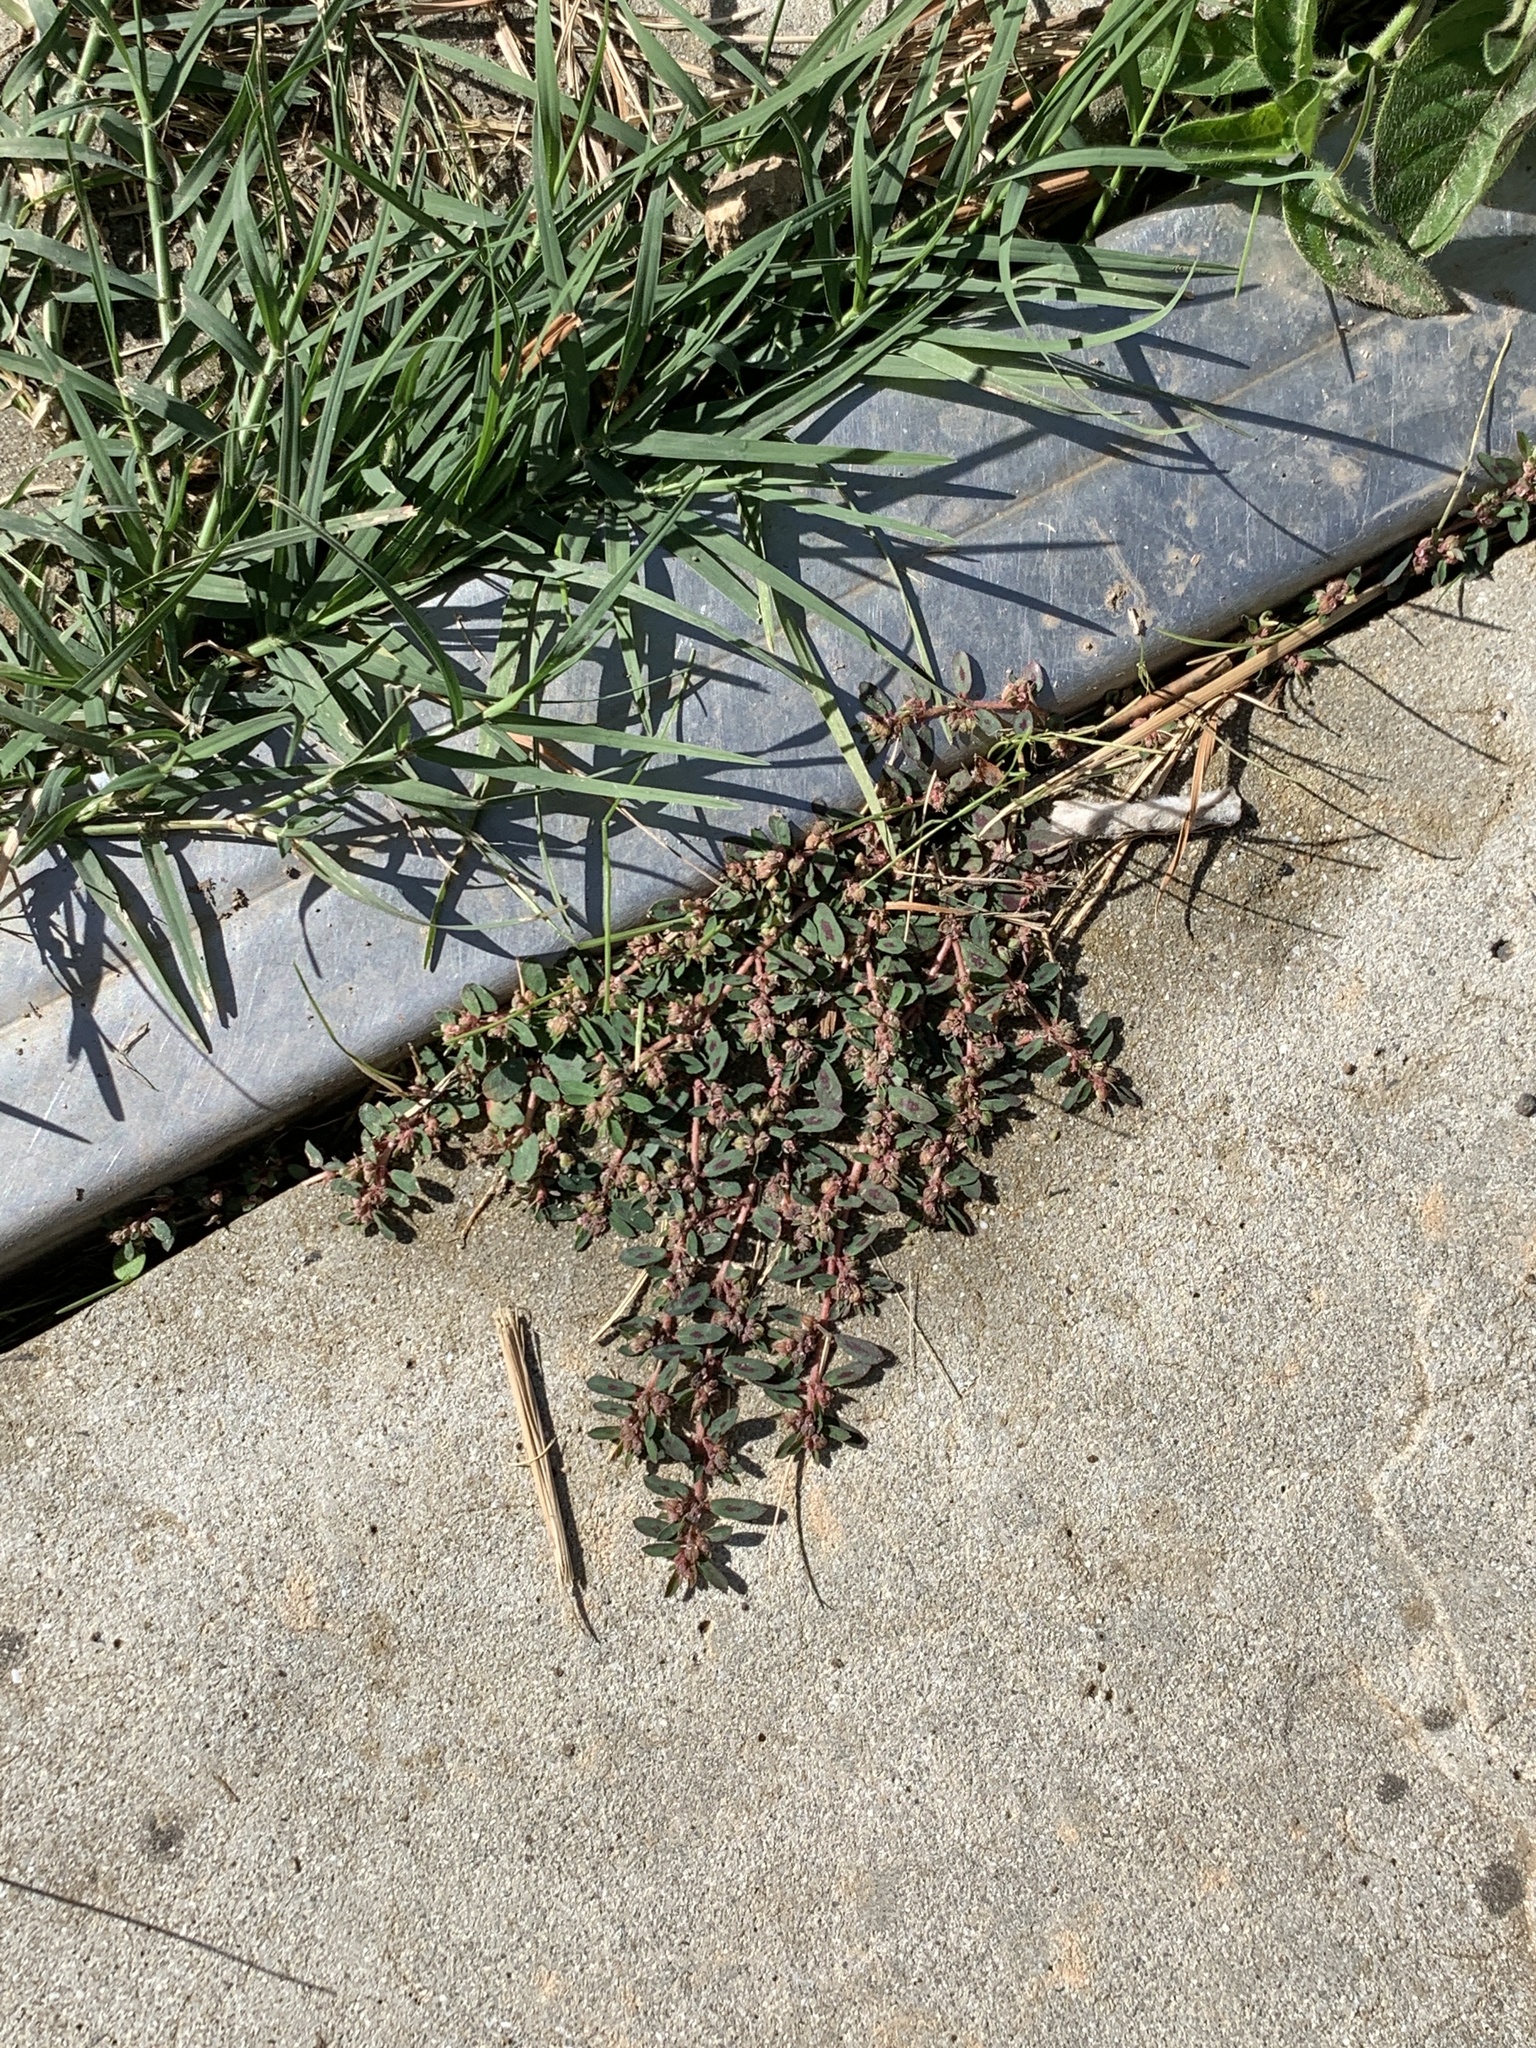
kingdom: Plantae
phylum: Tracheophyta
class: Magnoliopsida
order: Malpighiales
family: Euphorbiaceae
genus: Euphorbia
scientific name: Euphorbia maculata
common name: Spotted spurge
